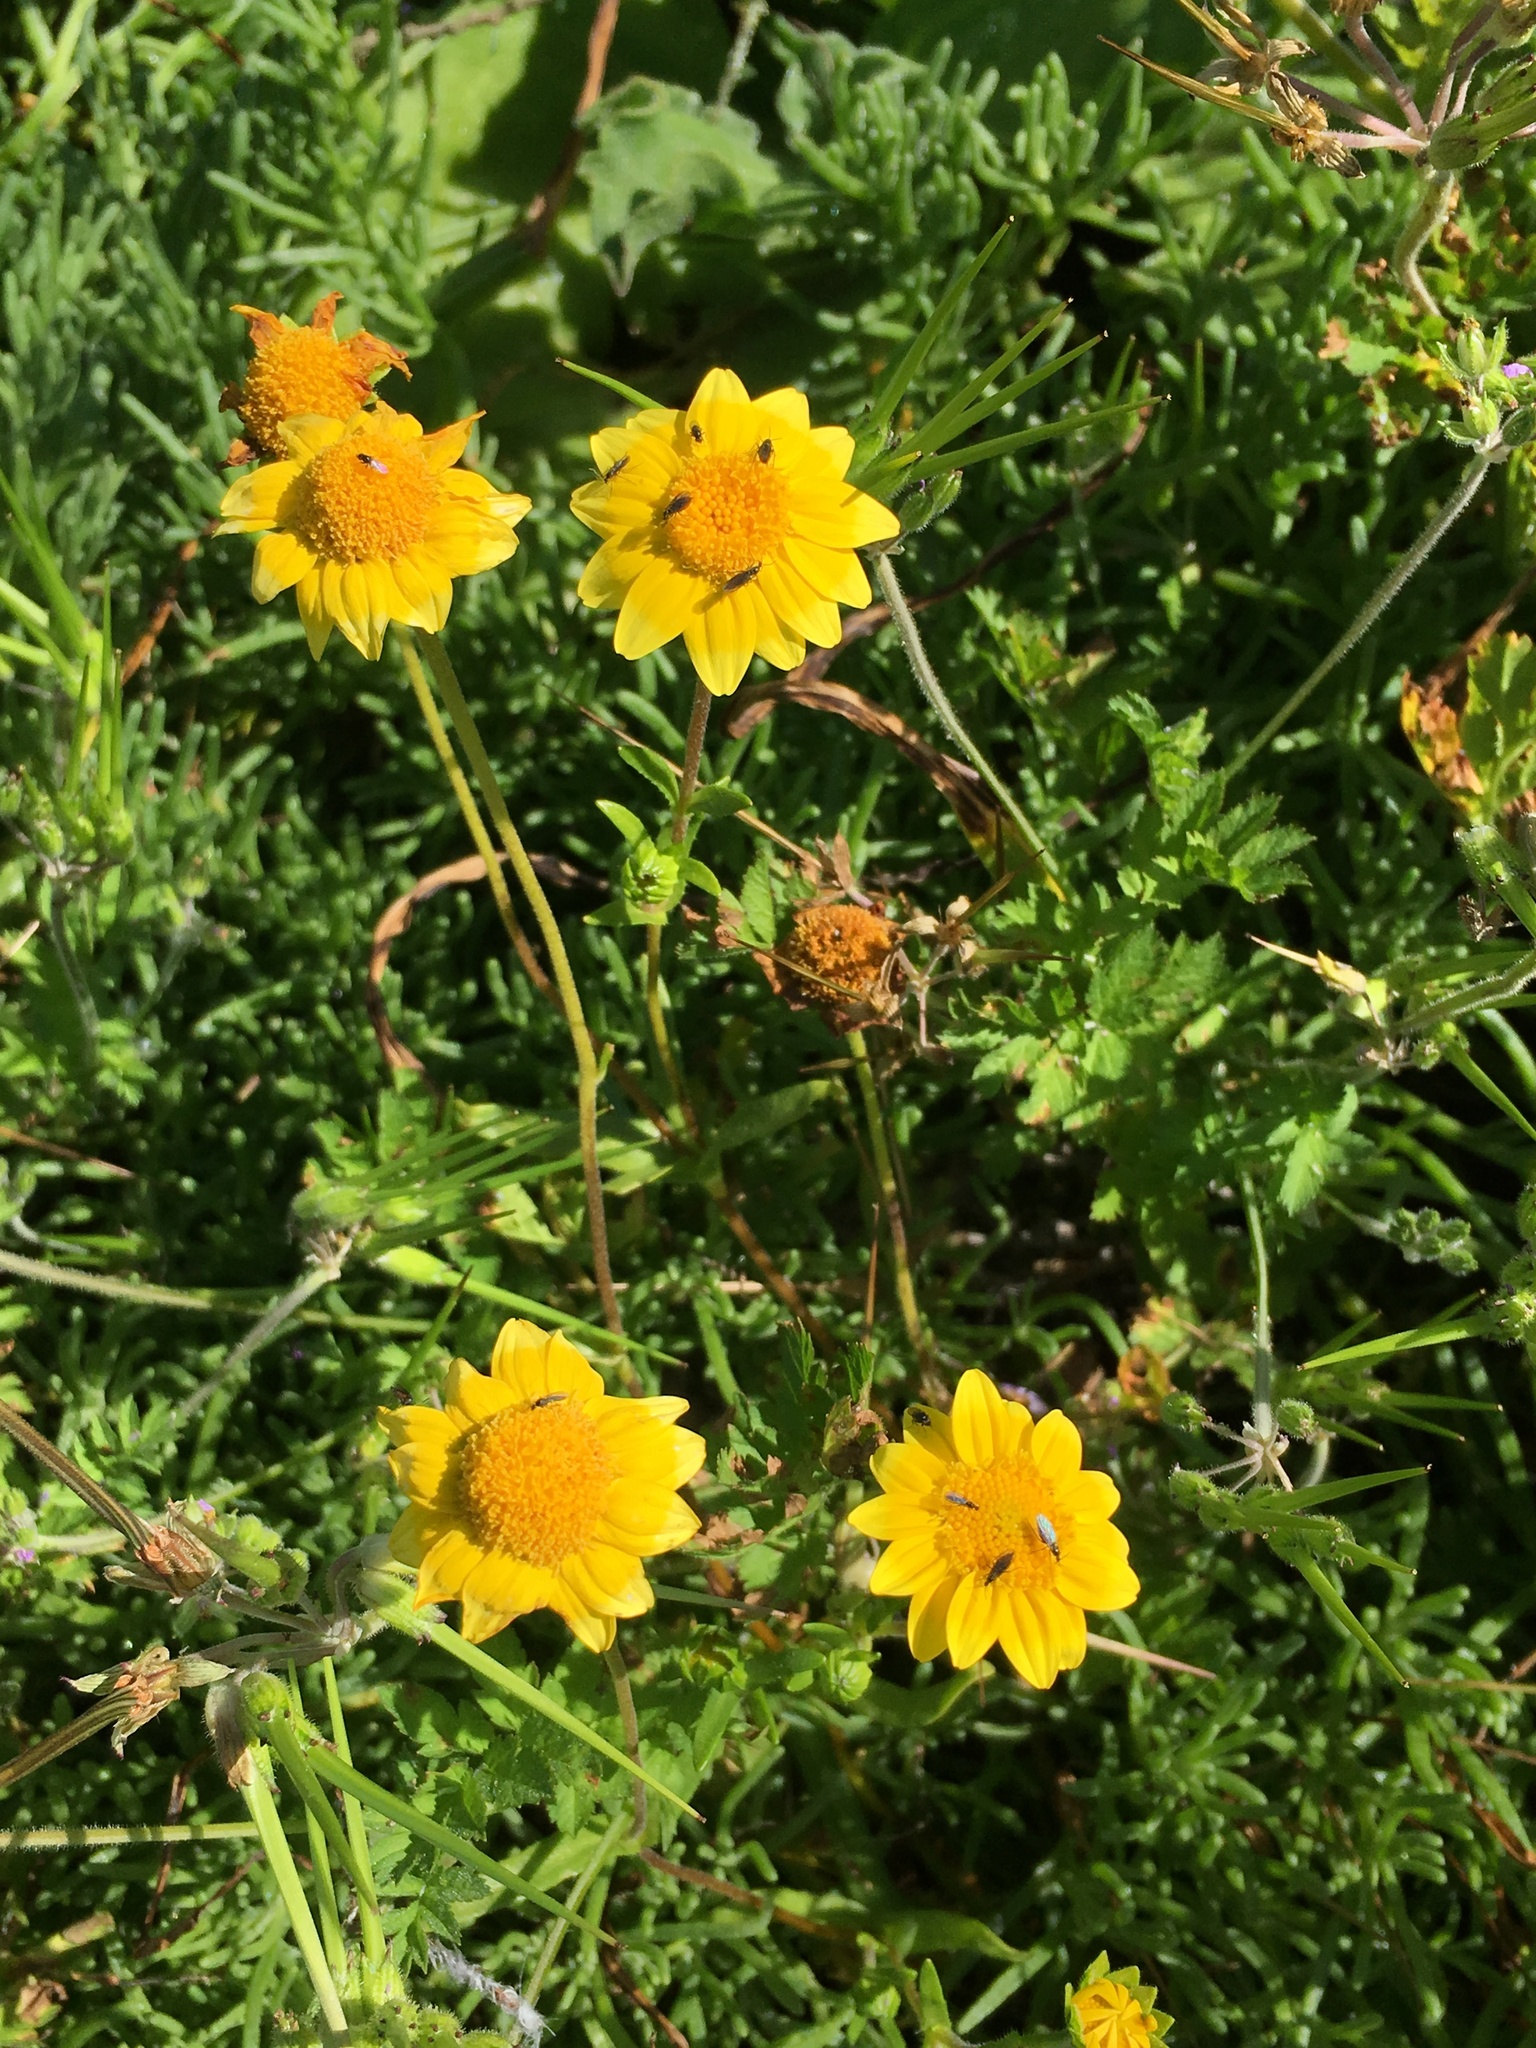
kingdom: Plantae
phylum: Tracheophyta
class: Magnoliopsida
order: Asterales
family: Asteraceae
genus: Lasthenia
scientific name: Lasthenia gracilis
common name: Common goldfields
